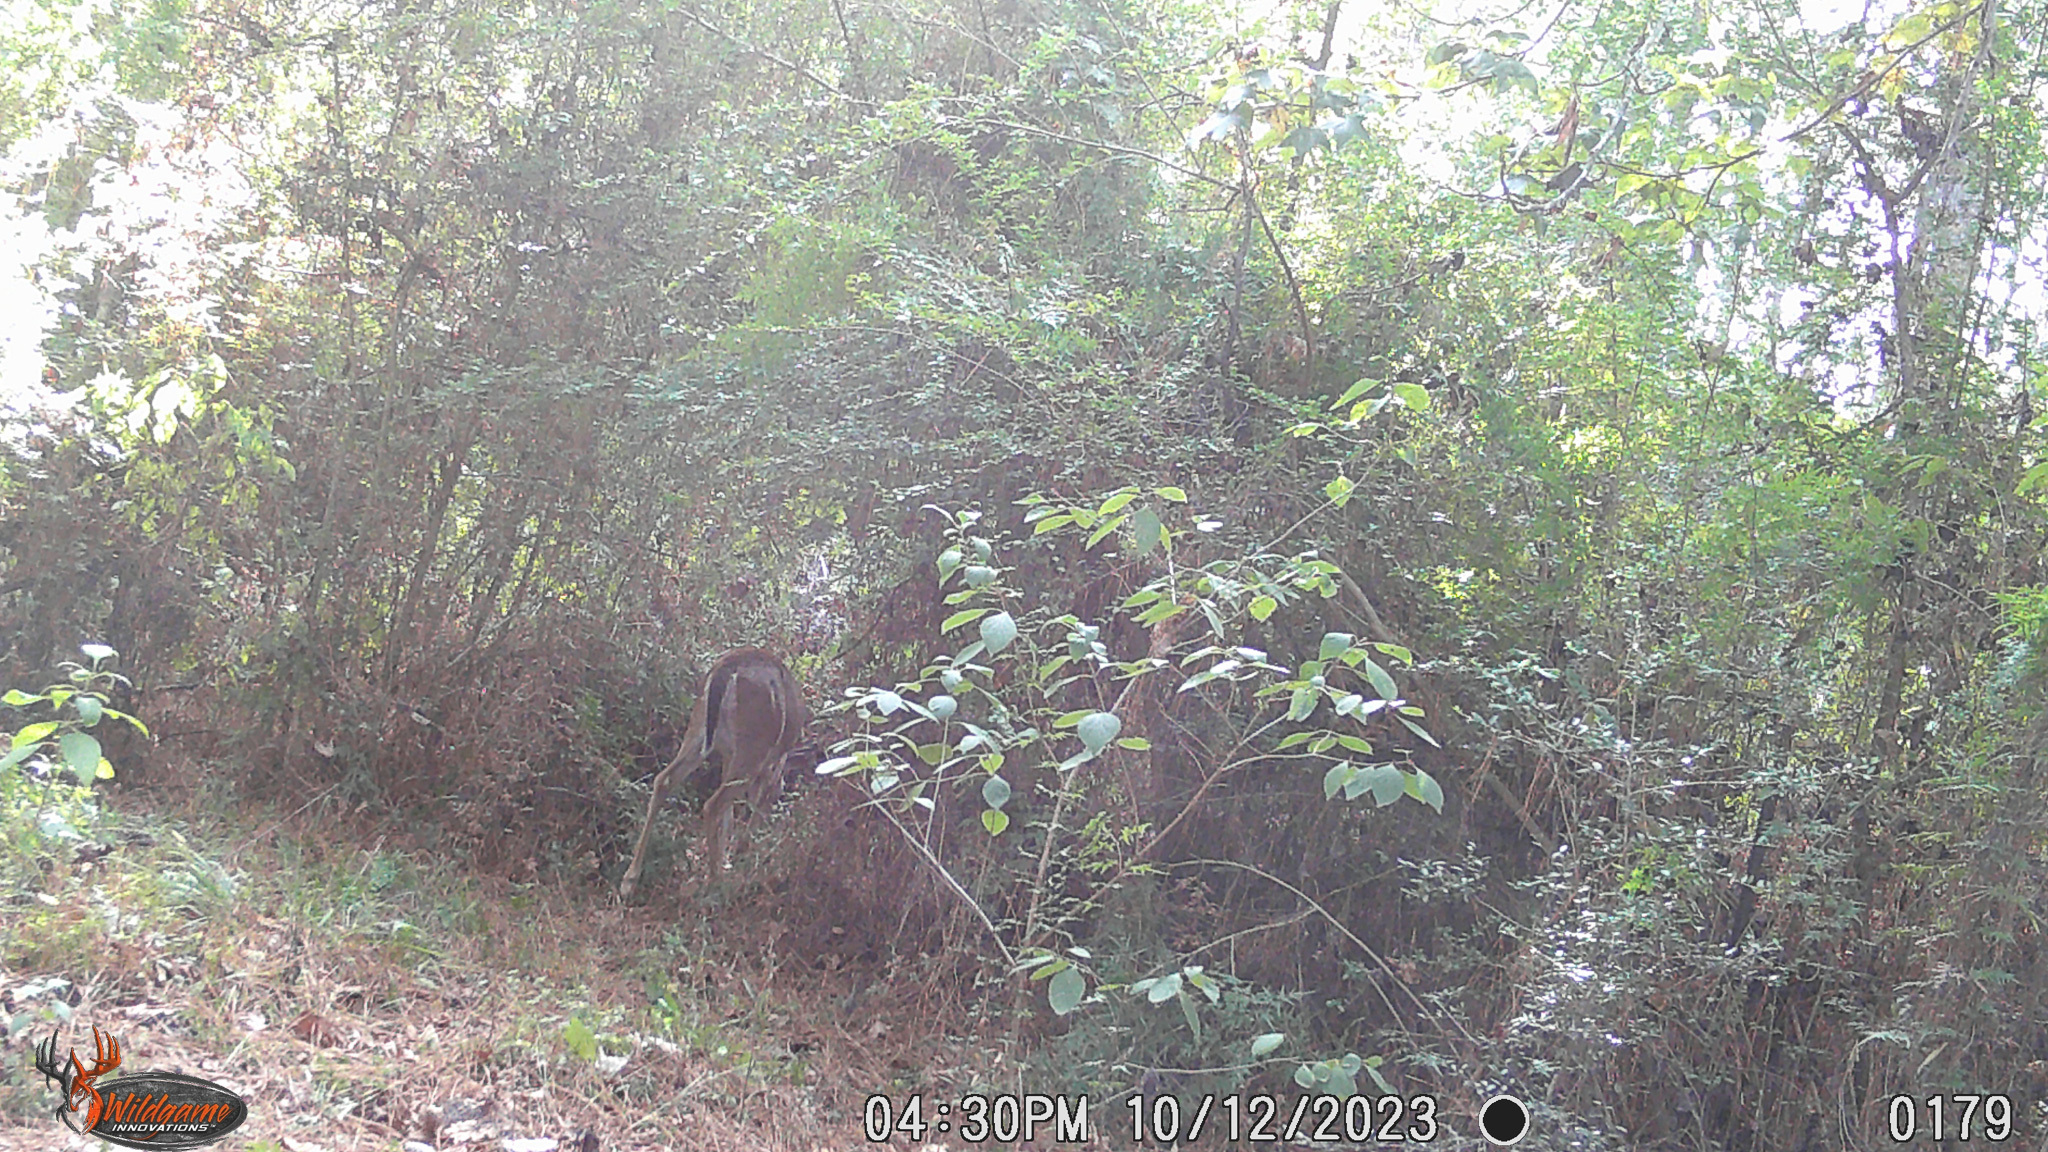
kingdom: Animalia
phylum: Chordata
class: Mammalia
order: Artiodactyla
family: Cervidae
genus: Odocoileus
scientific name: Odocoileus virginianus
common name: White-tailed deer
